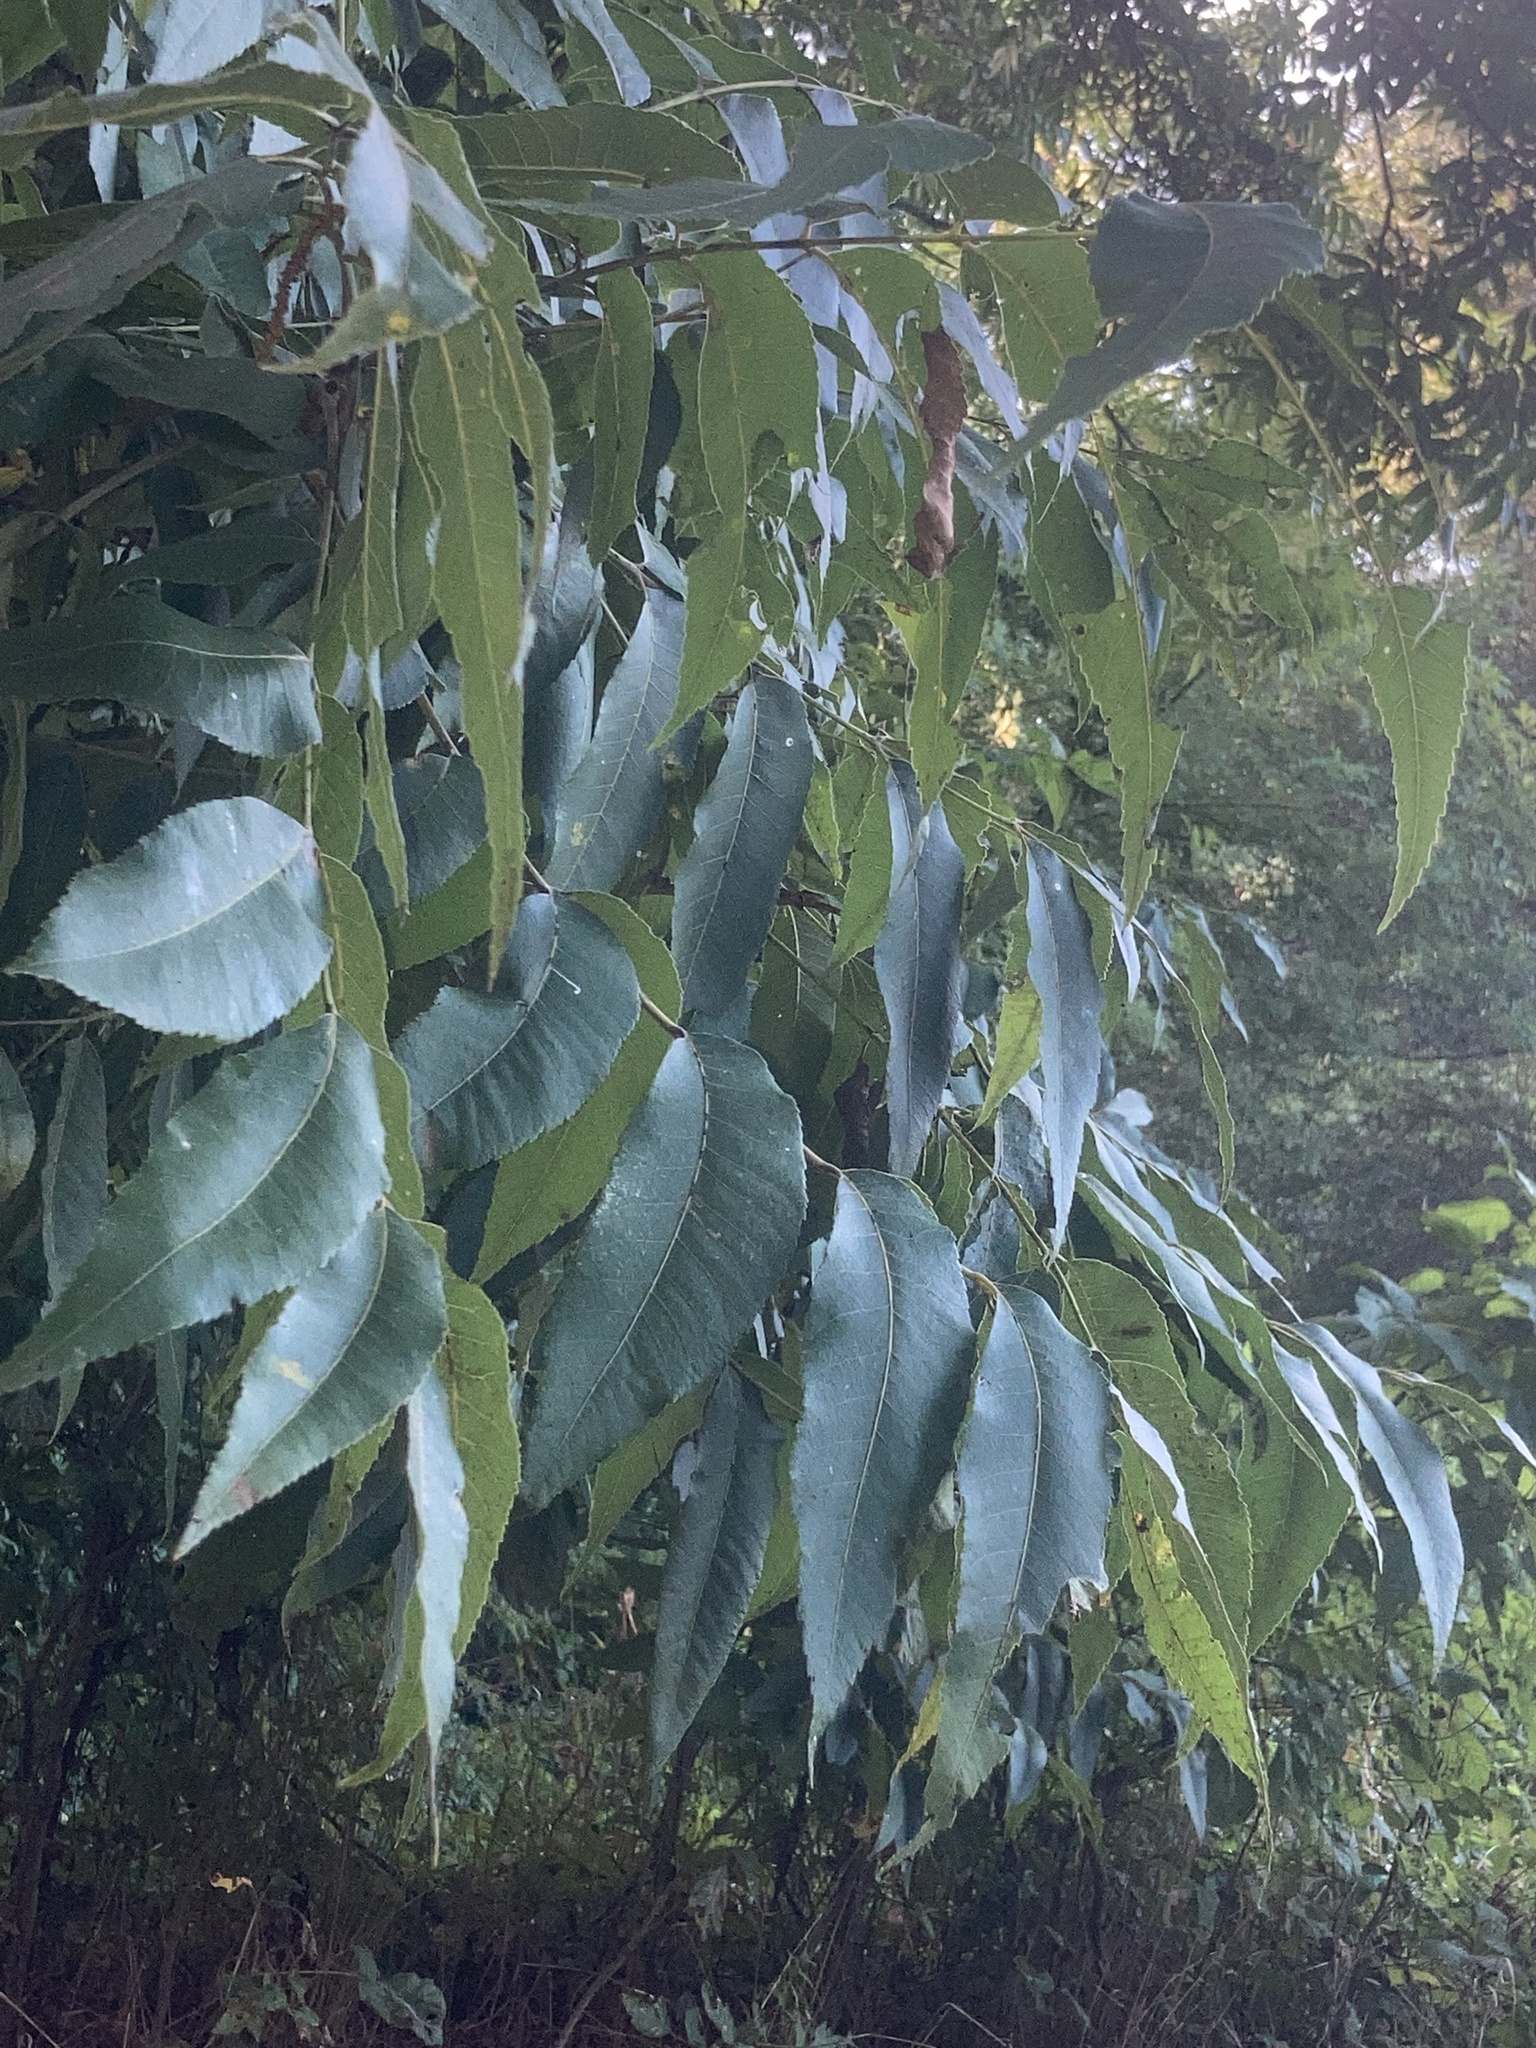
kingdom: Plantae
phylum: Tracheophyta
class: Magnoliopsida
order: Fagales
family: Juglandaceae
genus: Carya
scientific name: Carya illinoinensis
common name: Pecan
